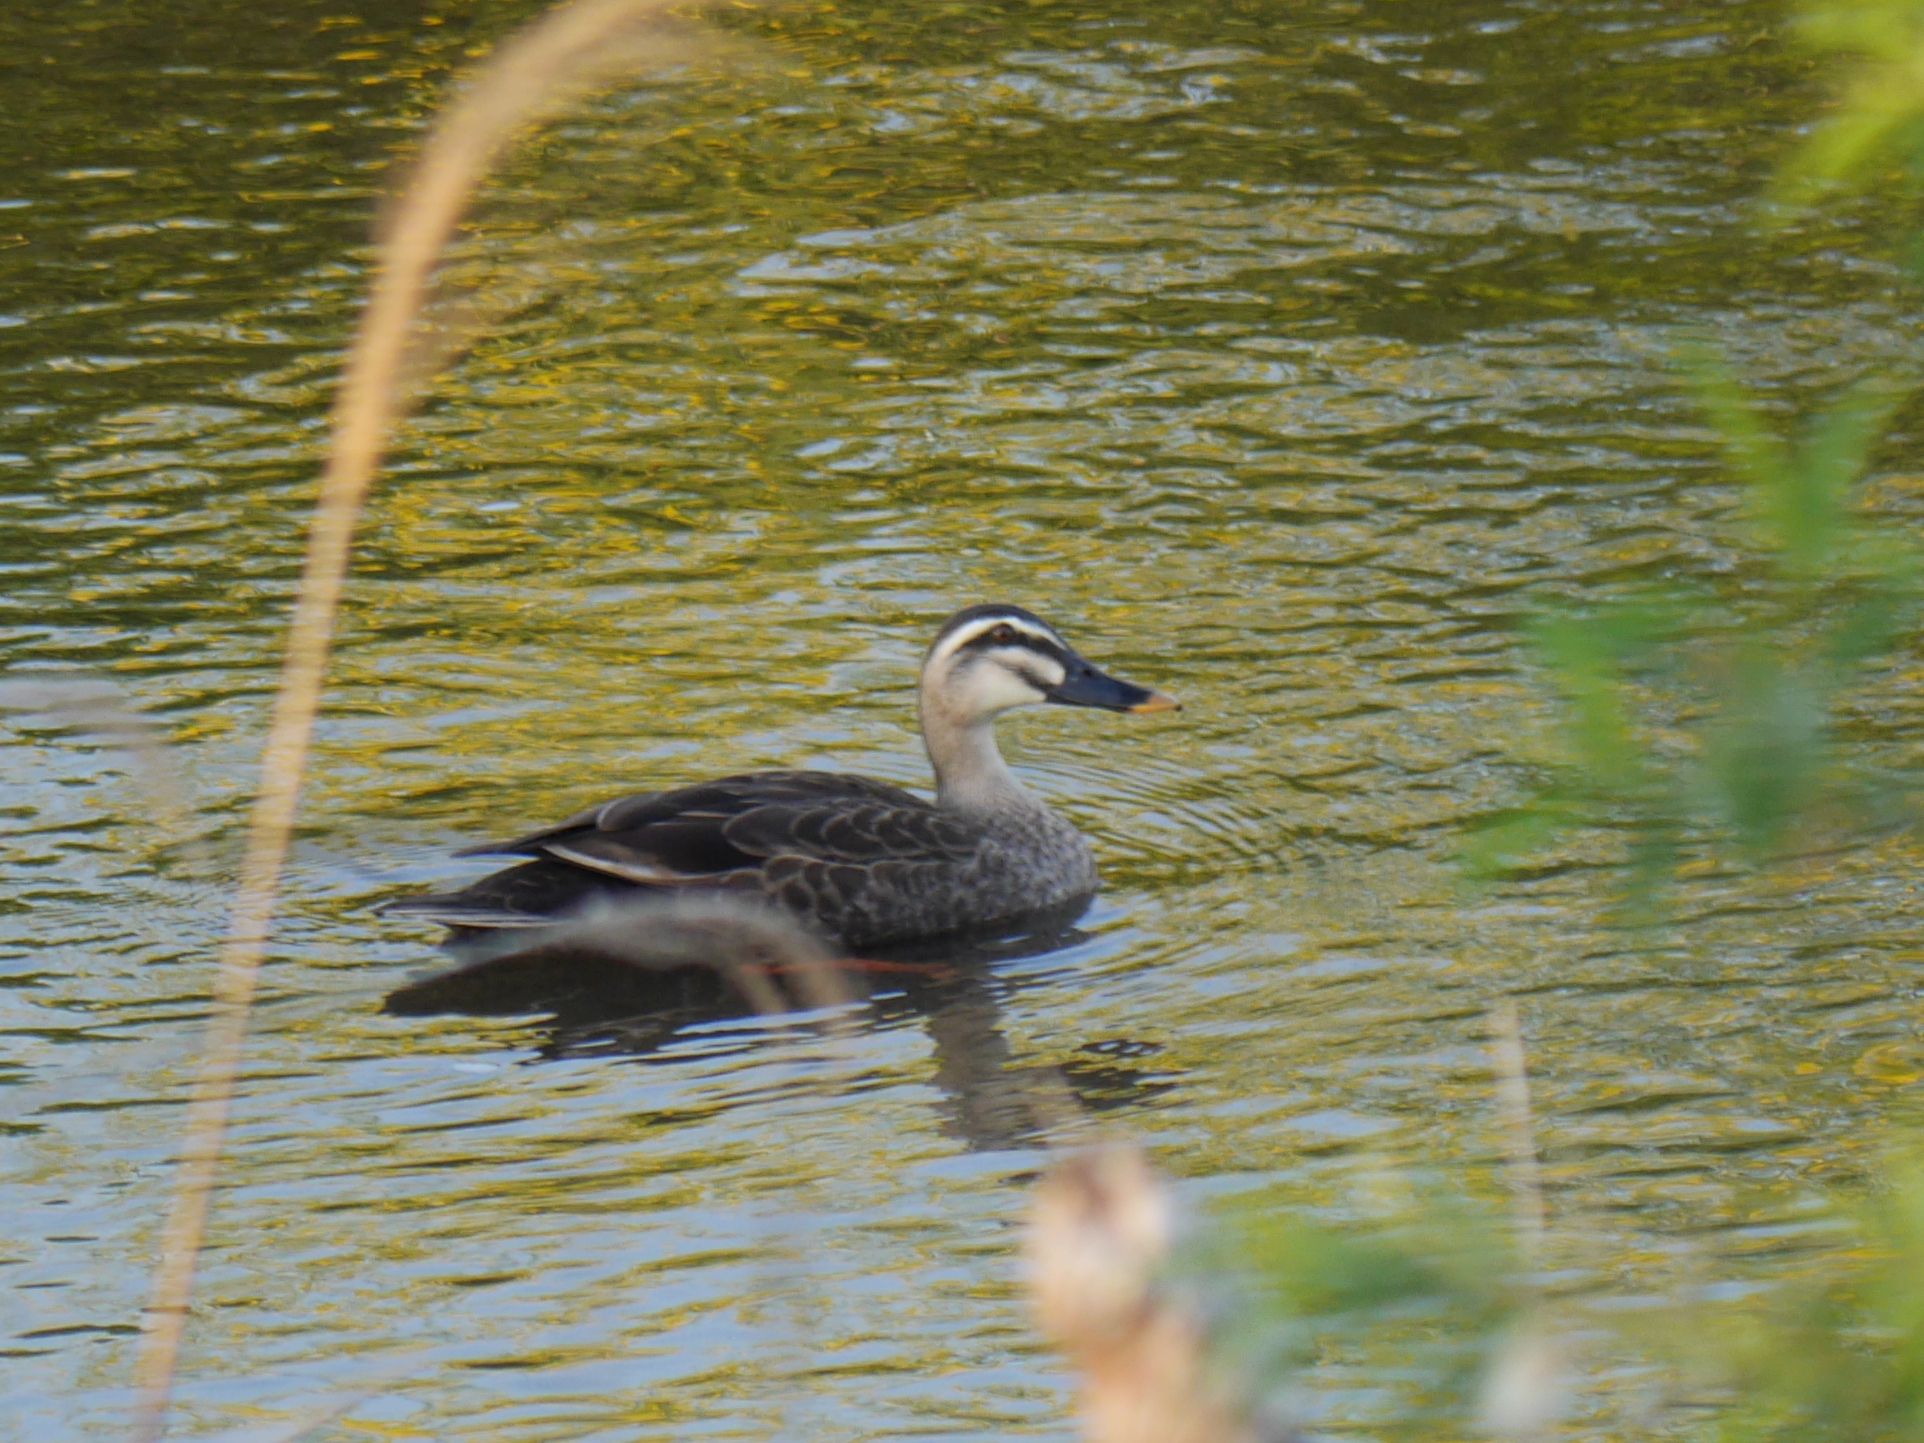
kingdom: Animalia
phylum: Chordata
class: Aves
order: Anseriformes
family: Anatidae
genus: Anas
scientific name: Anas zonorhyncha
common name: Eastern spot-billed duck
